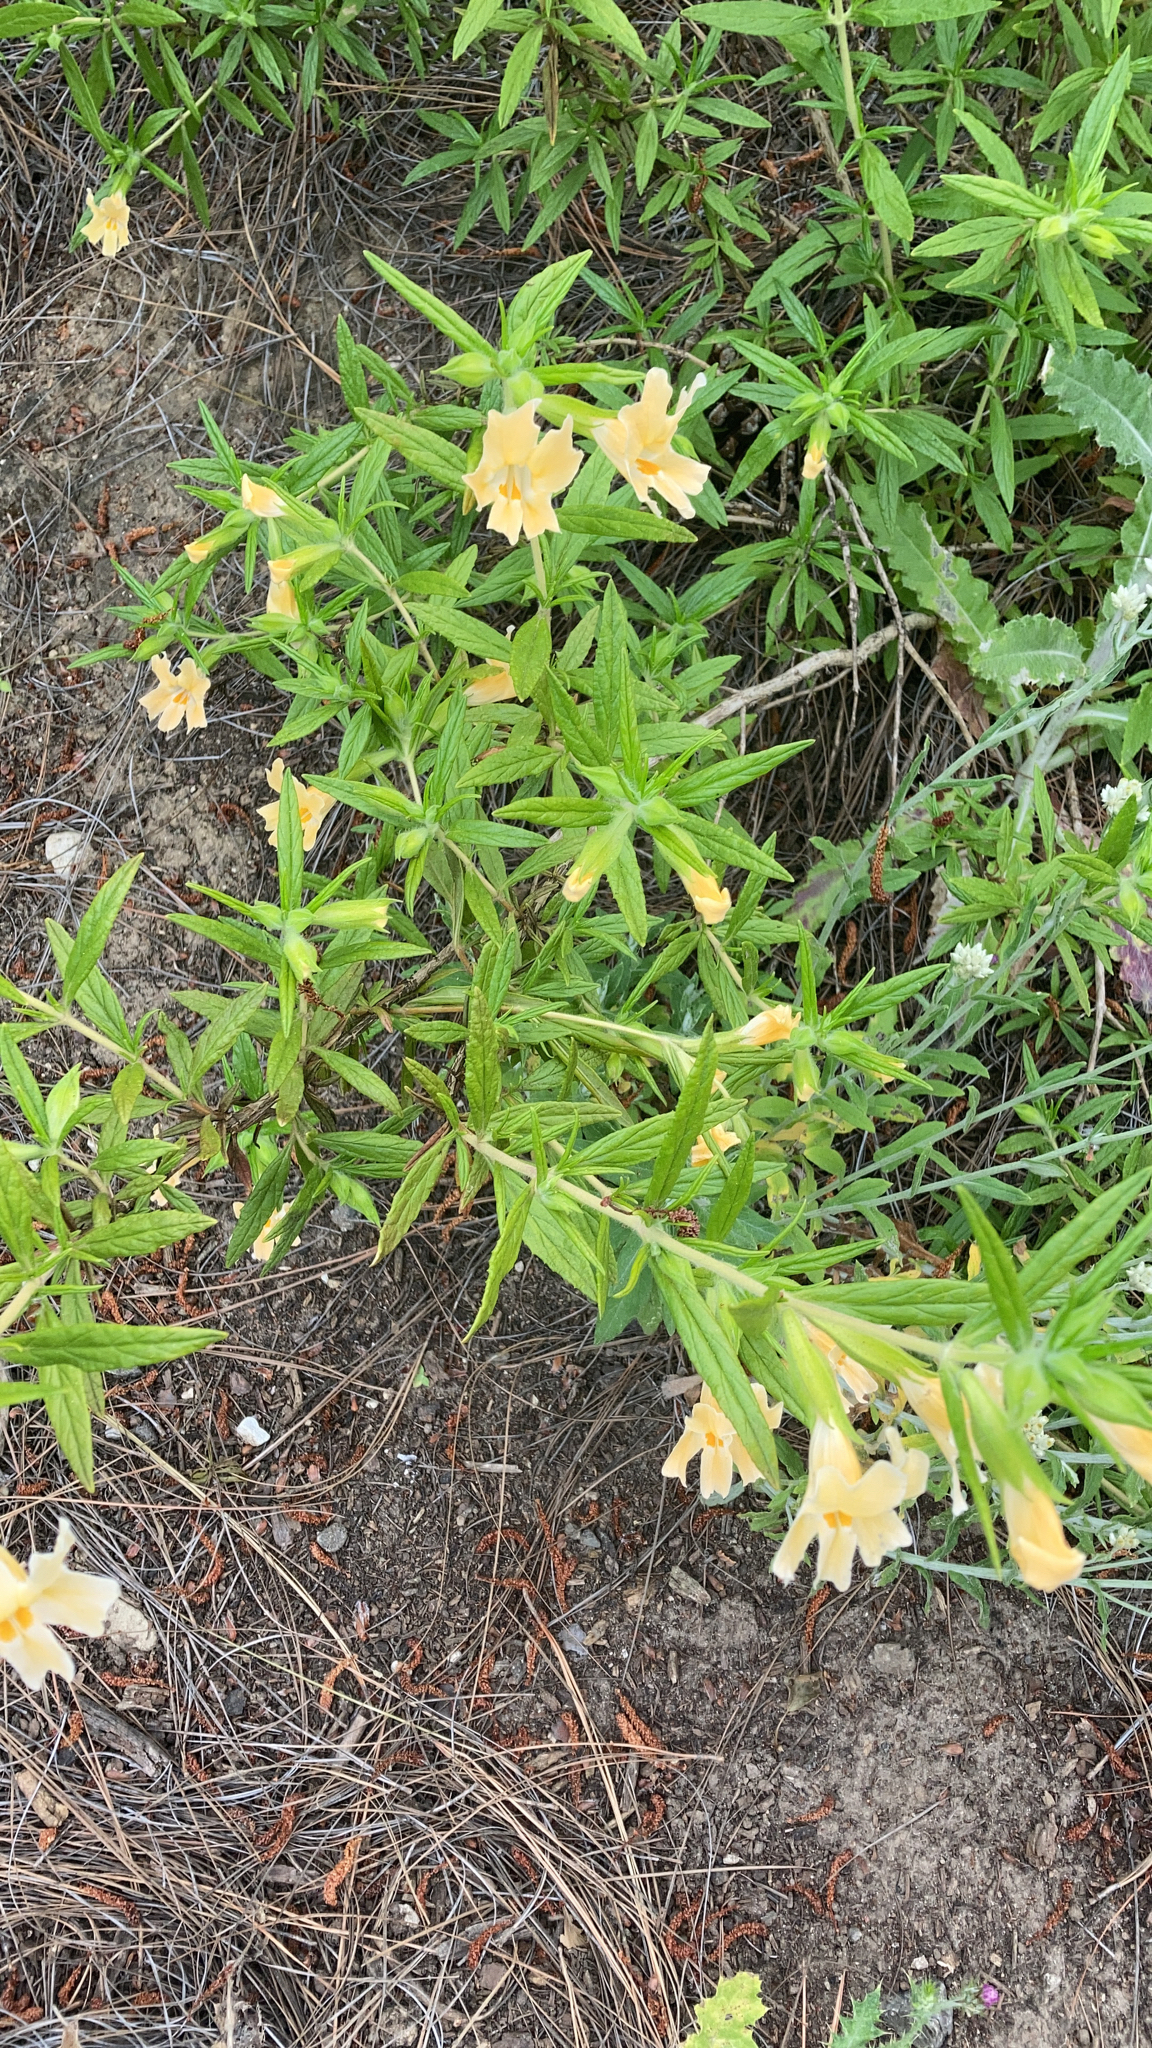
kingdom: Plantae
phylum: Tracheophyta
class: Magnoliopsida
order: Lamiales
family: Phrymaceae
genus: Diplacus
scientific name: Diplacus longiflorus
